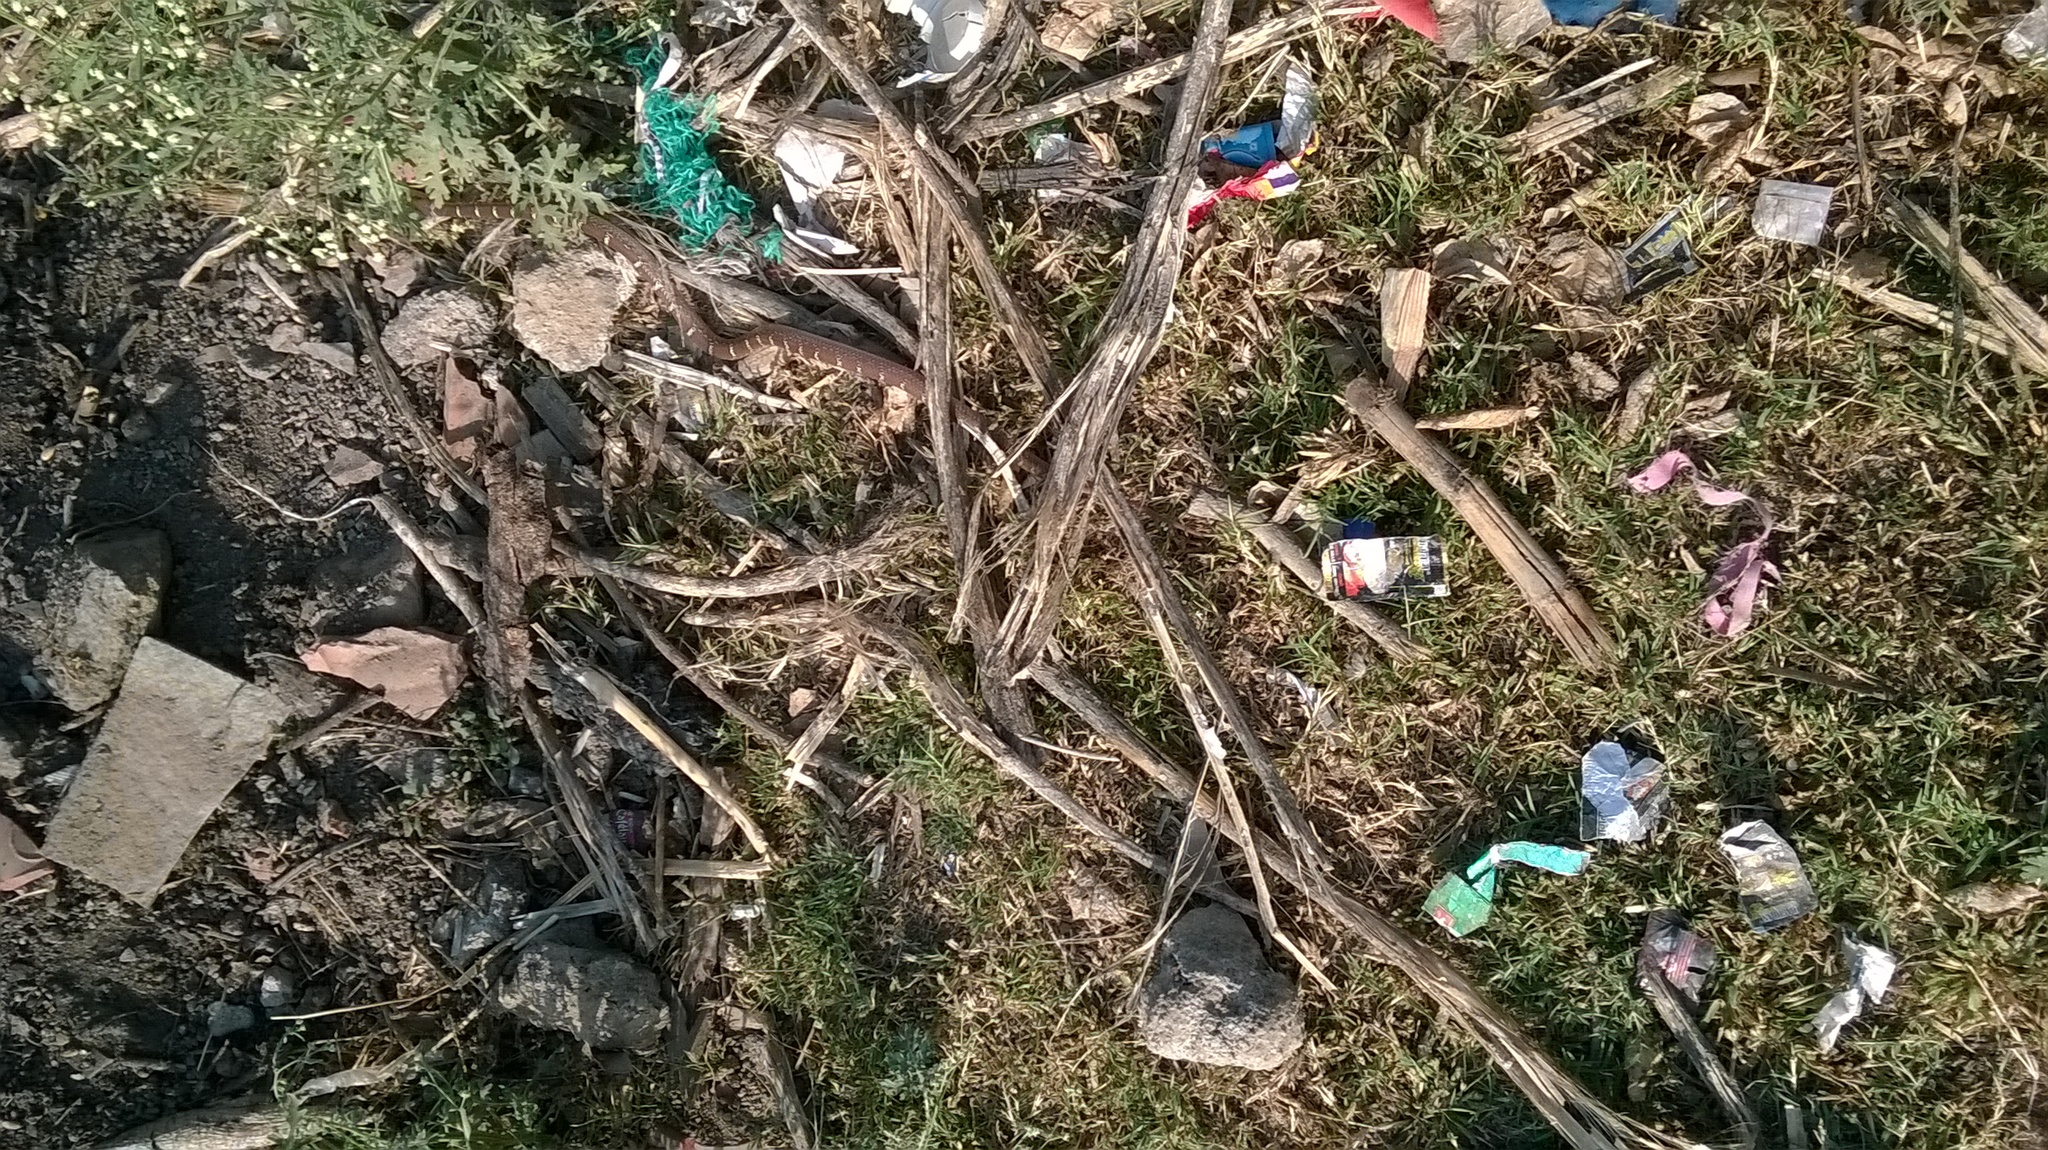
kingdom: Animalia
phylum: Chordata
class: Squamata
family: Colubridae
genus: Lycodon
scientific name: Lycodon aulicus
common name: Common wolf snake
